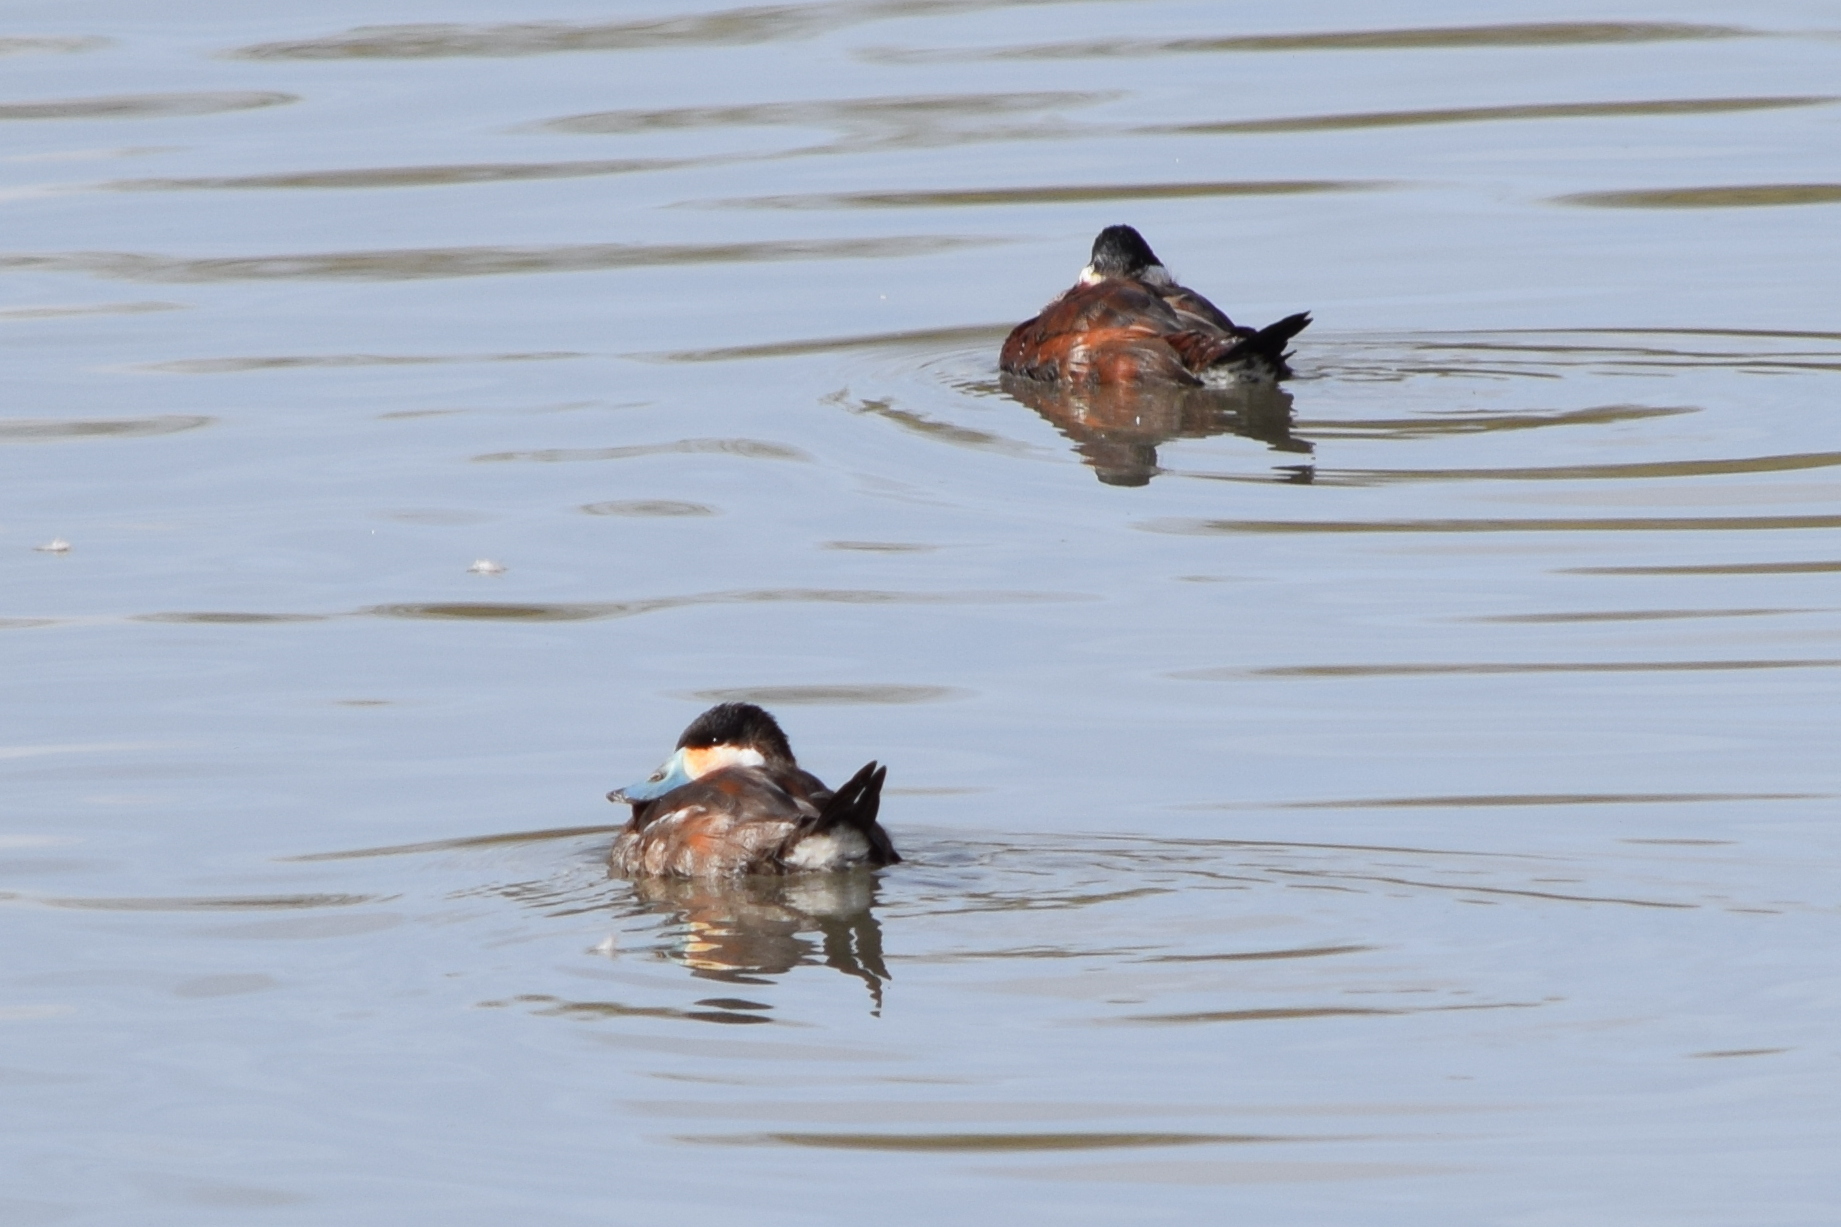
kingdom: Animalia
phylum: Chordata
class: Aves
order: Anseriformes
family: Anatidae
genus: Oxyura
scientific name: Oxyura jamaicensis
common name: Ruddy duck
